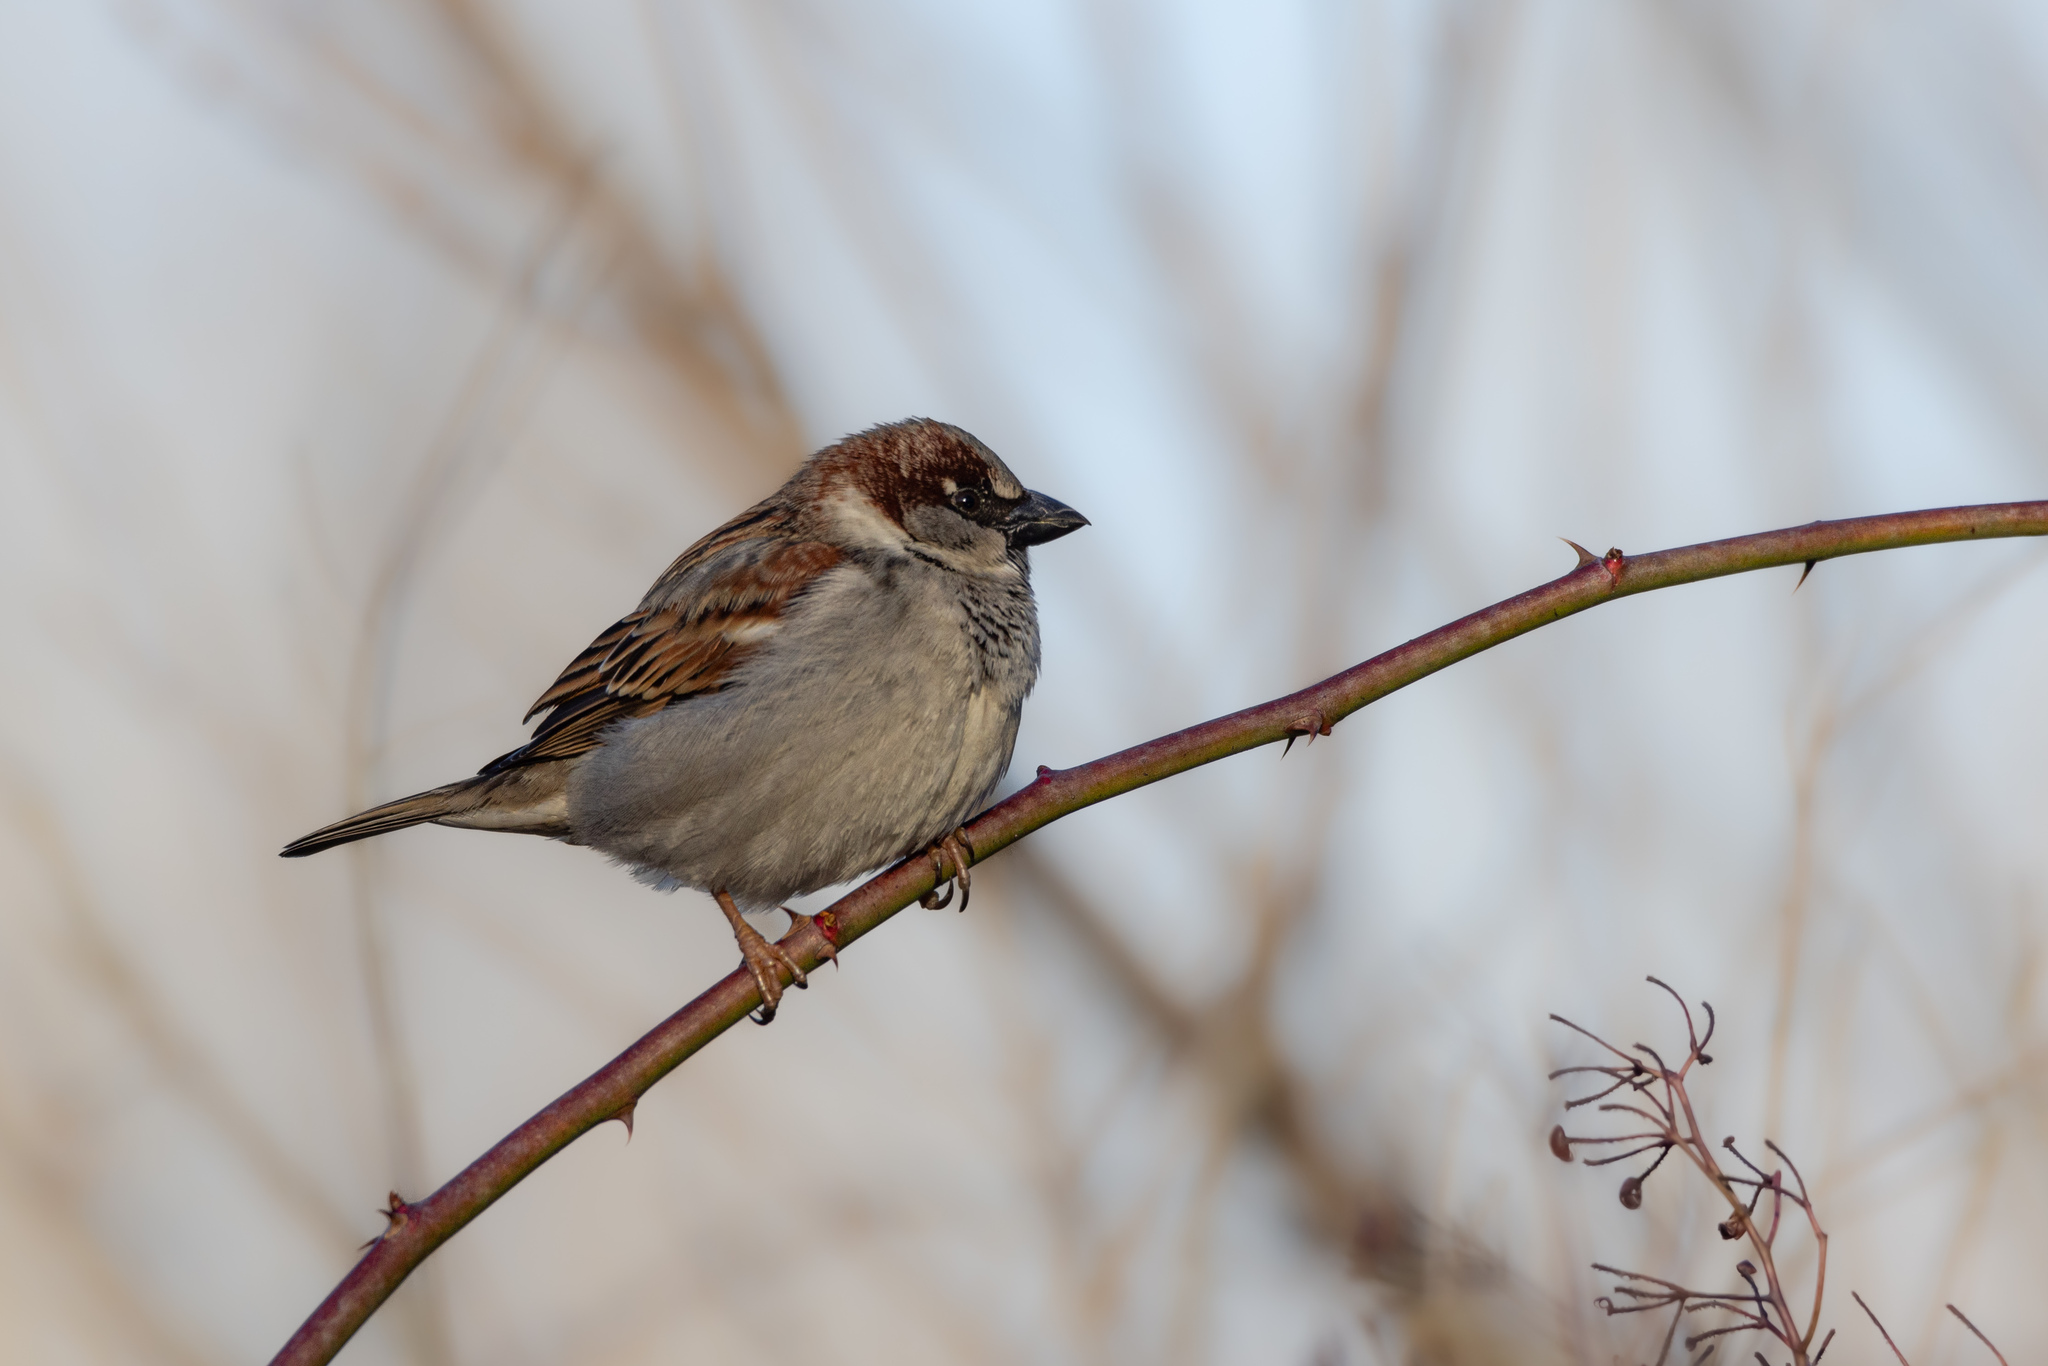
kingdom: Animalia
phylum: Chordata
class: Aves
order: Passeriformes
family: Passeridae
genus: Passer
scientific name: Passer domesticus
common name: House sparrow
